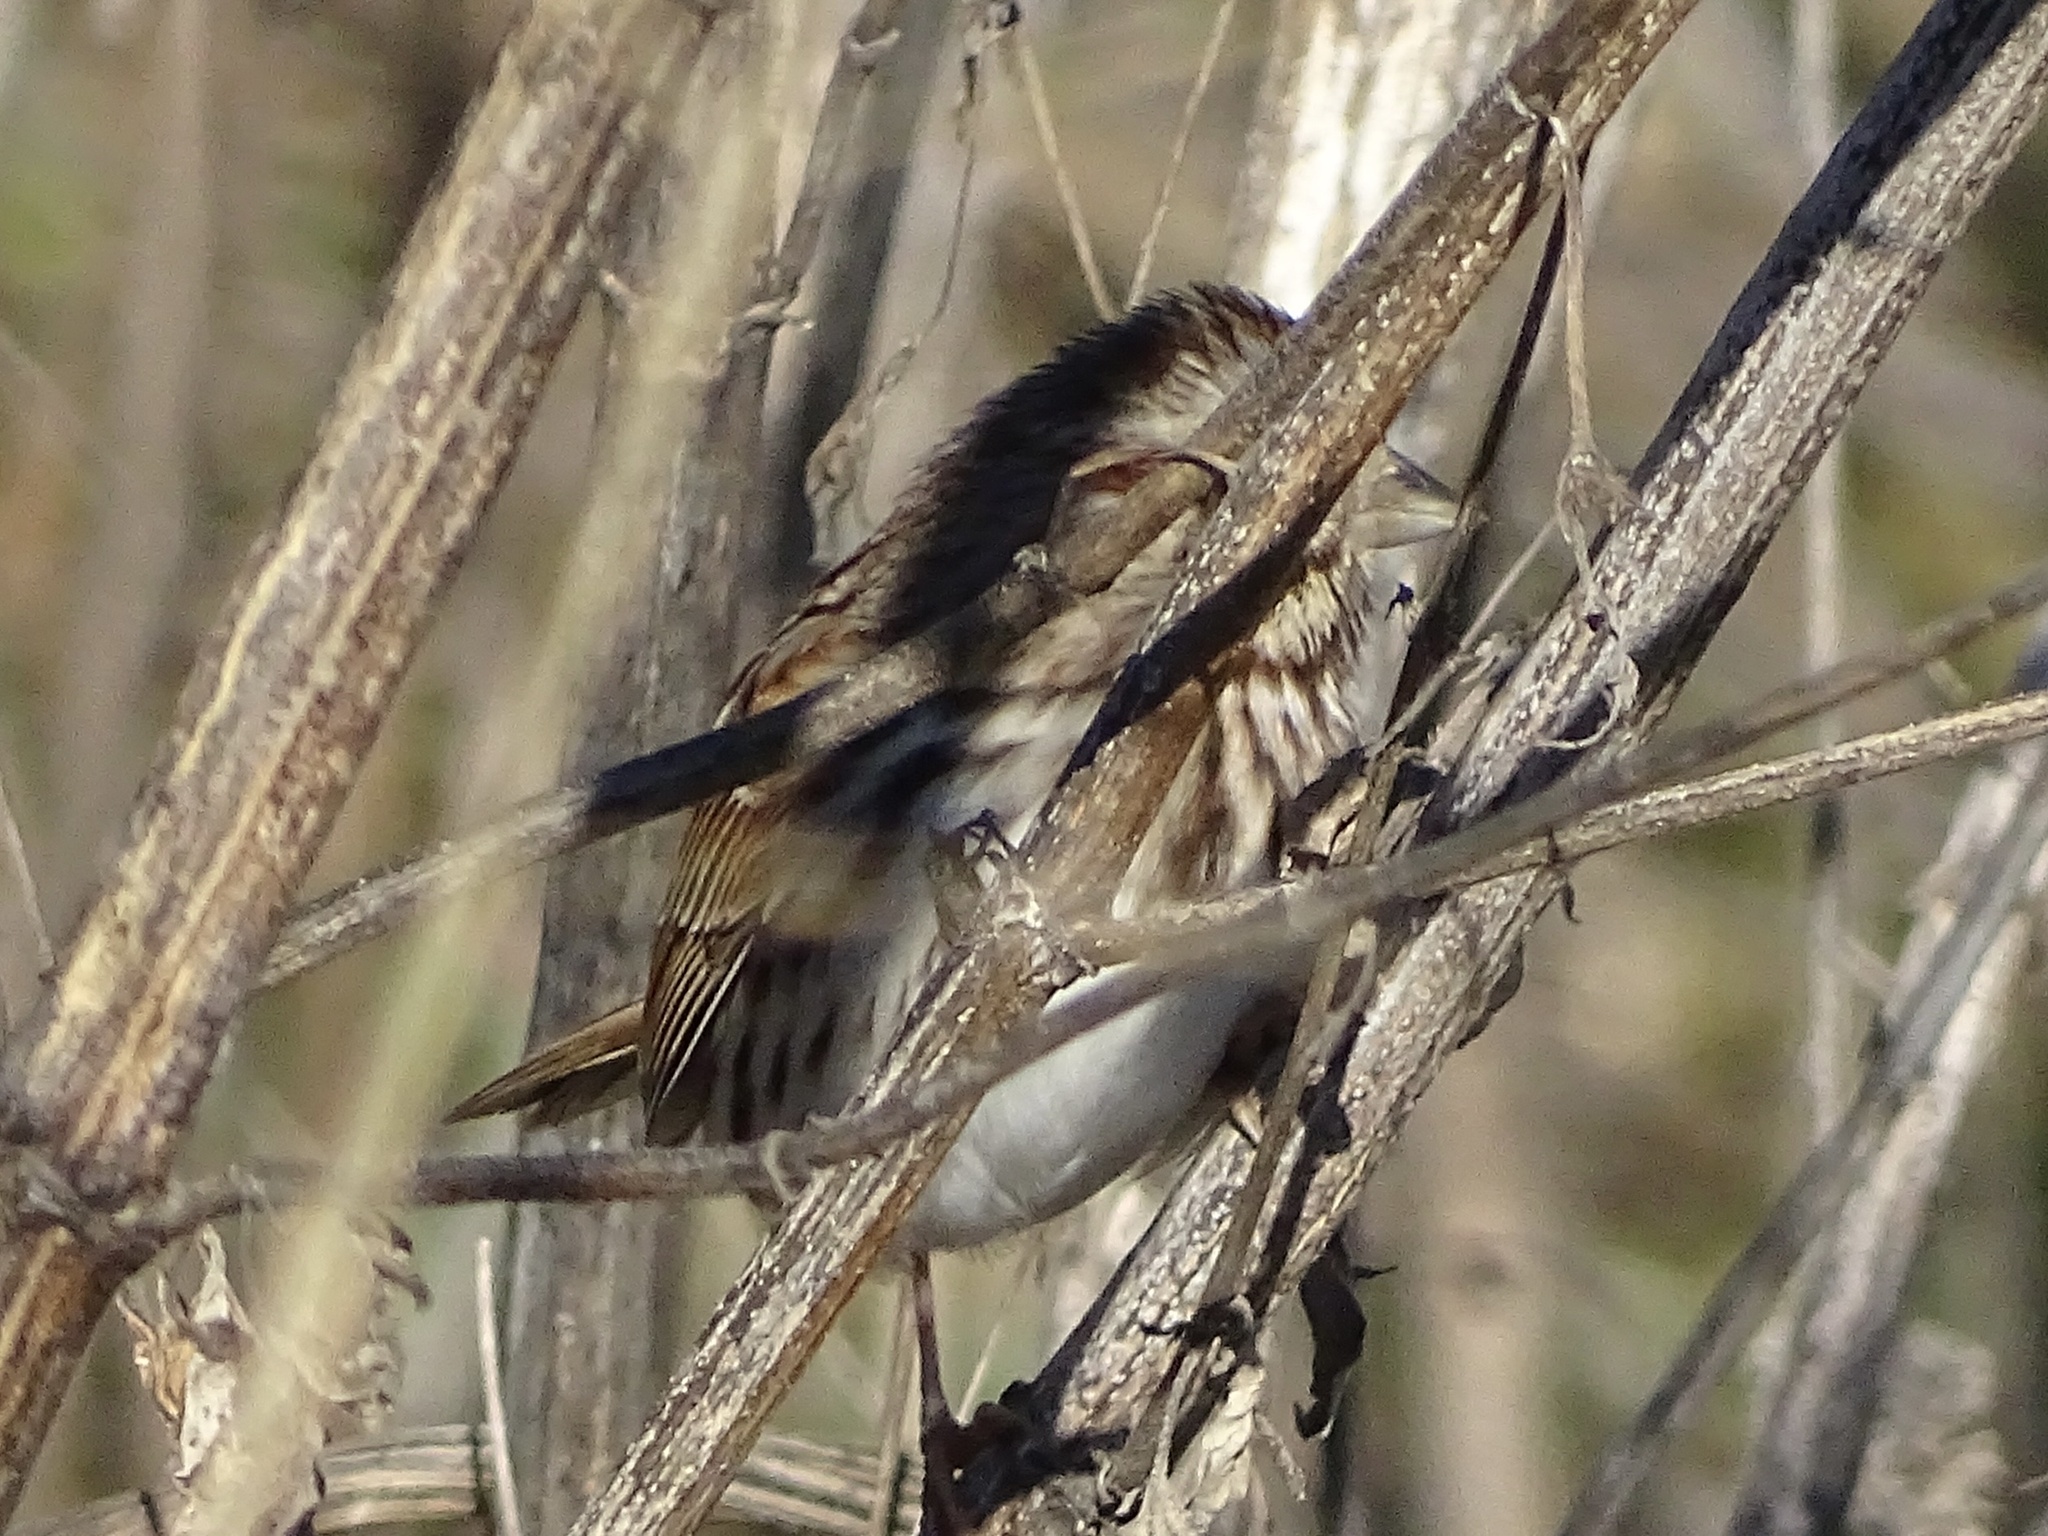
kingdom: Animalia
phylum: Chordata
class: Aves
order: Passeriformes
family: Passerellidae
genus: Melospiza
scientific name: Melospiza melodia
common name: Song sparrow
